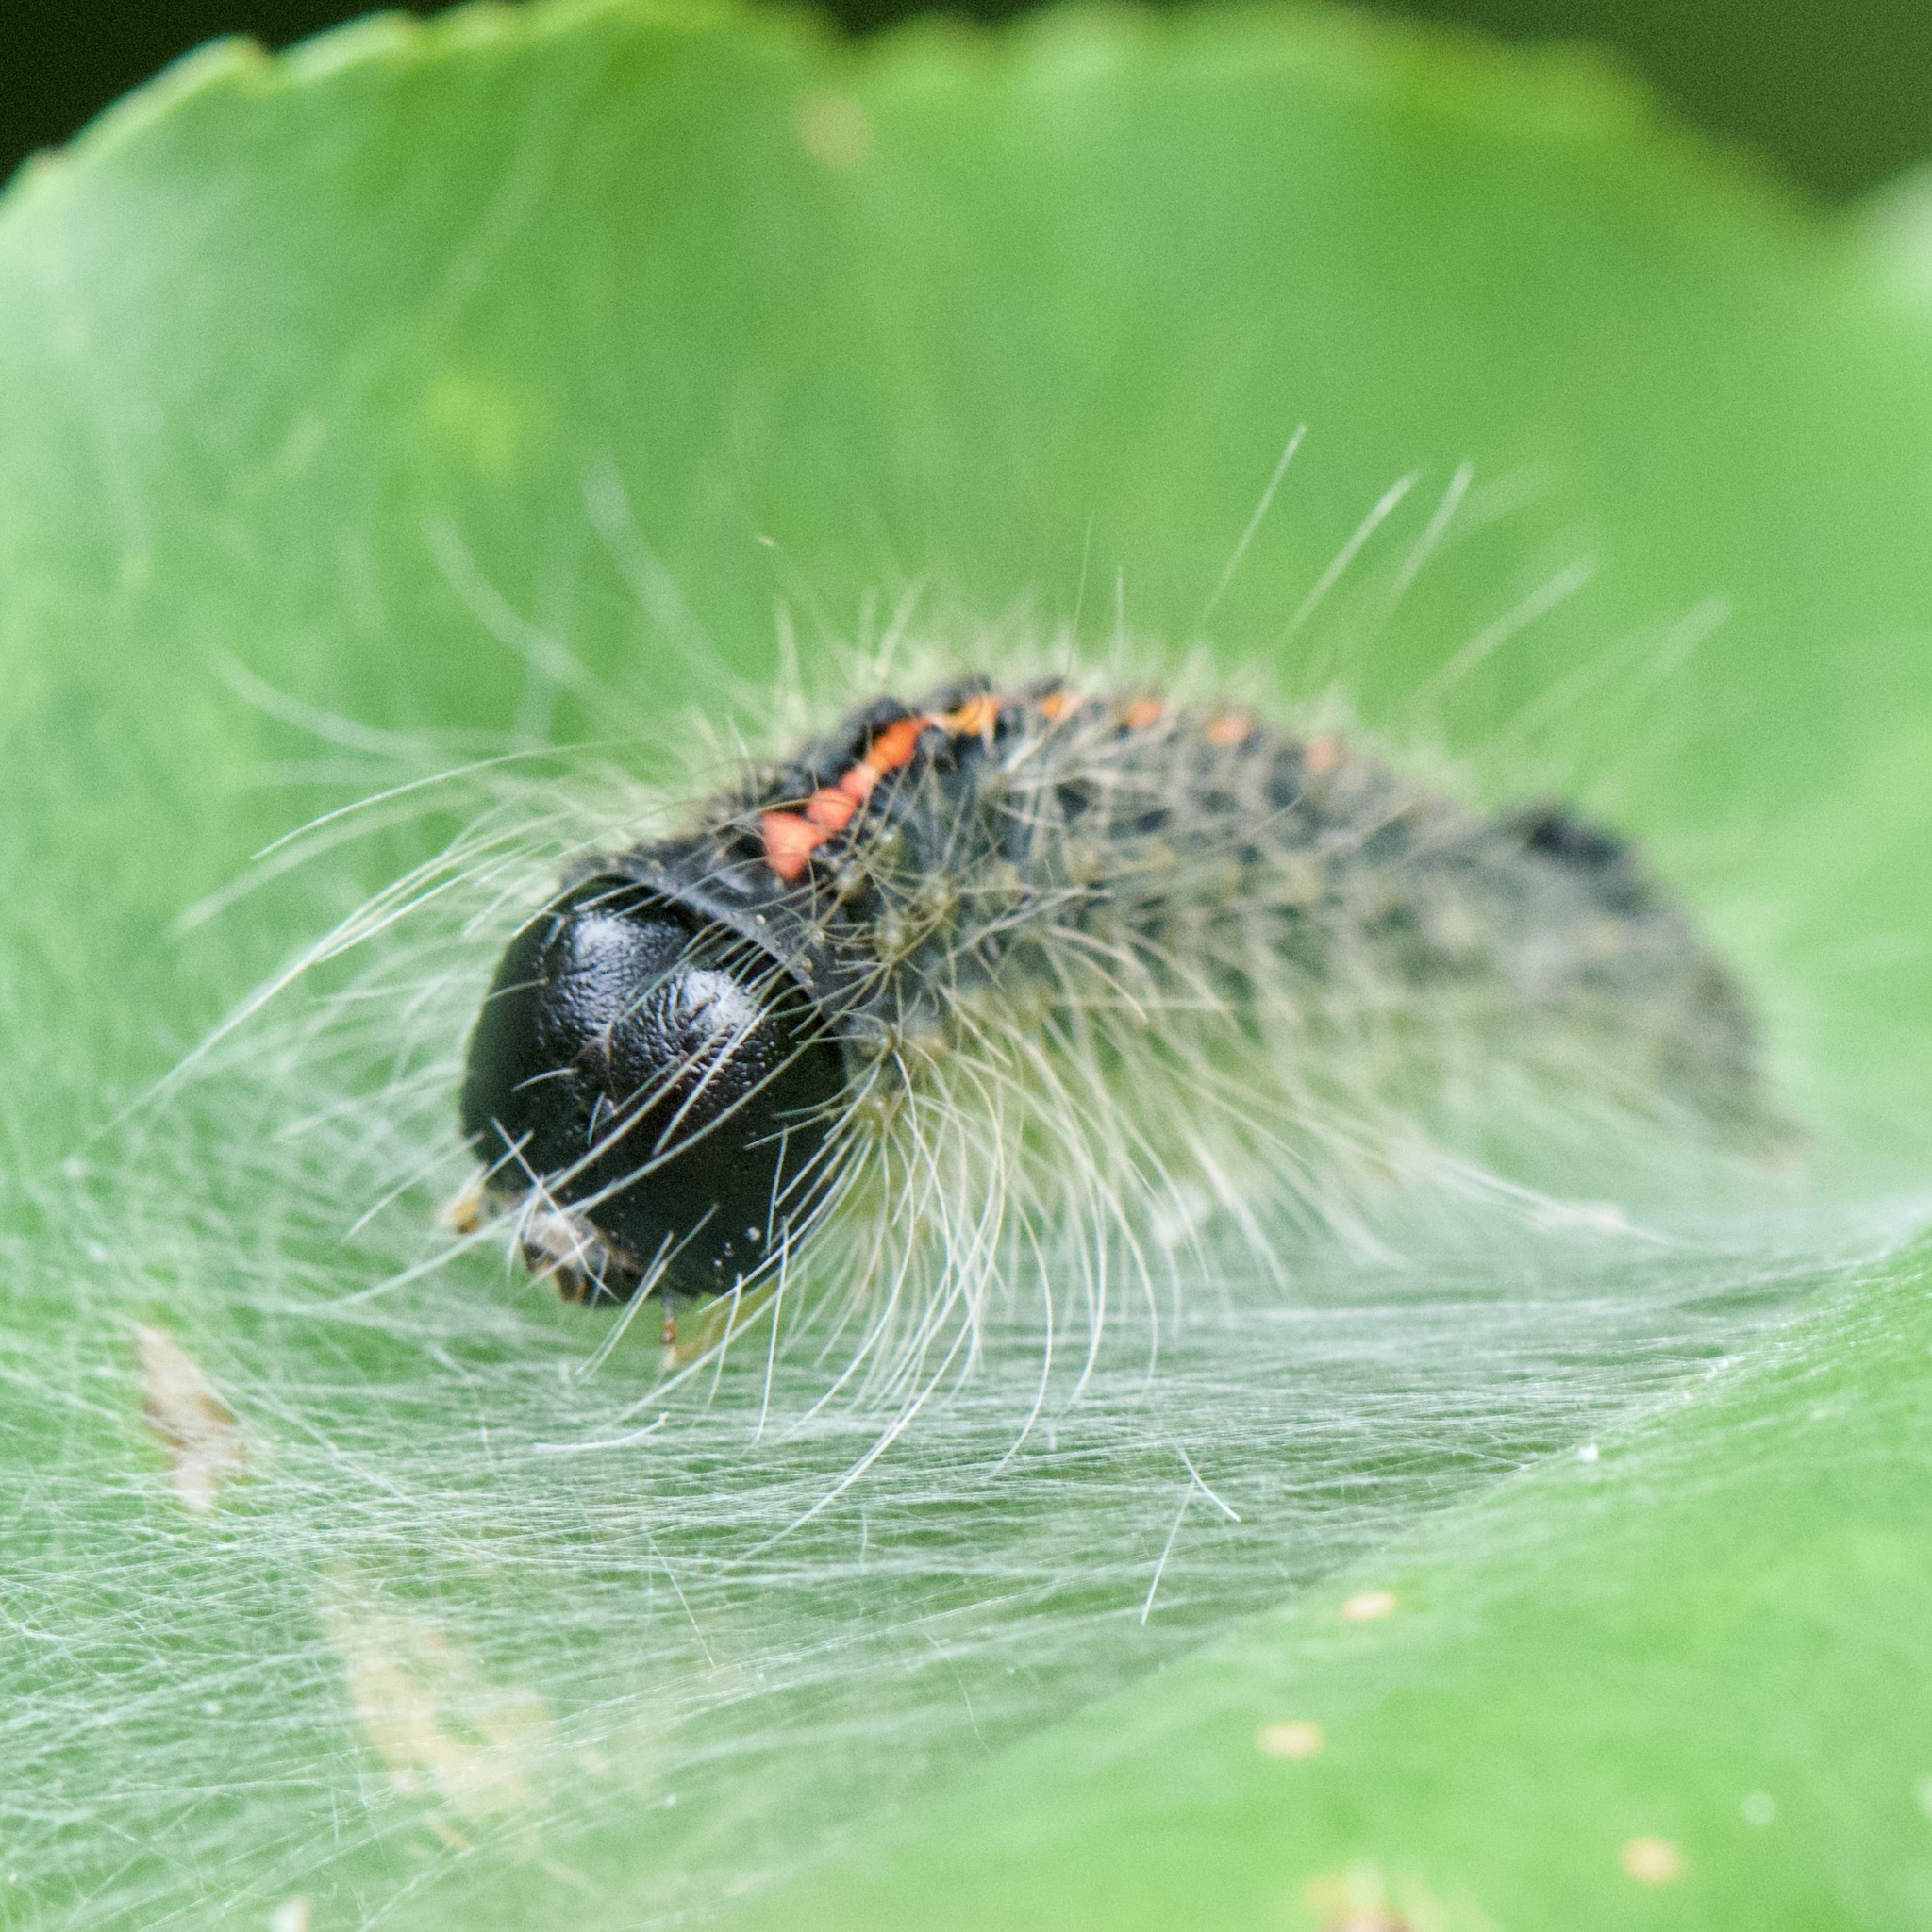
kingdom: Animalia
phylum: Arthropoda
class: Insecta
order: Lepidoptera
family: Noctuidae
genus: Acronicta
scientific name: Acronicta hasta
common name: Cherry dagger
